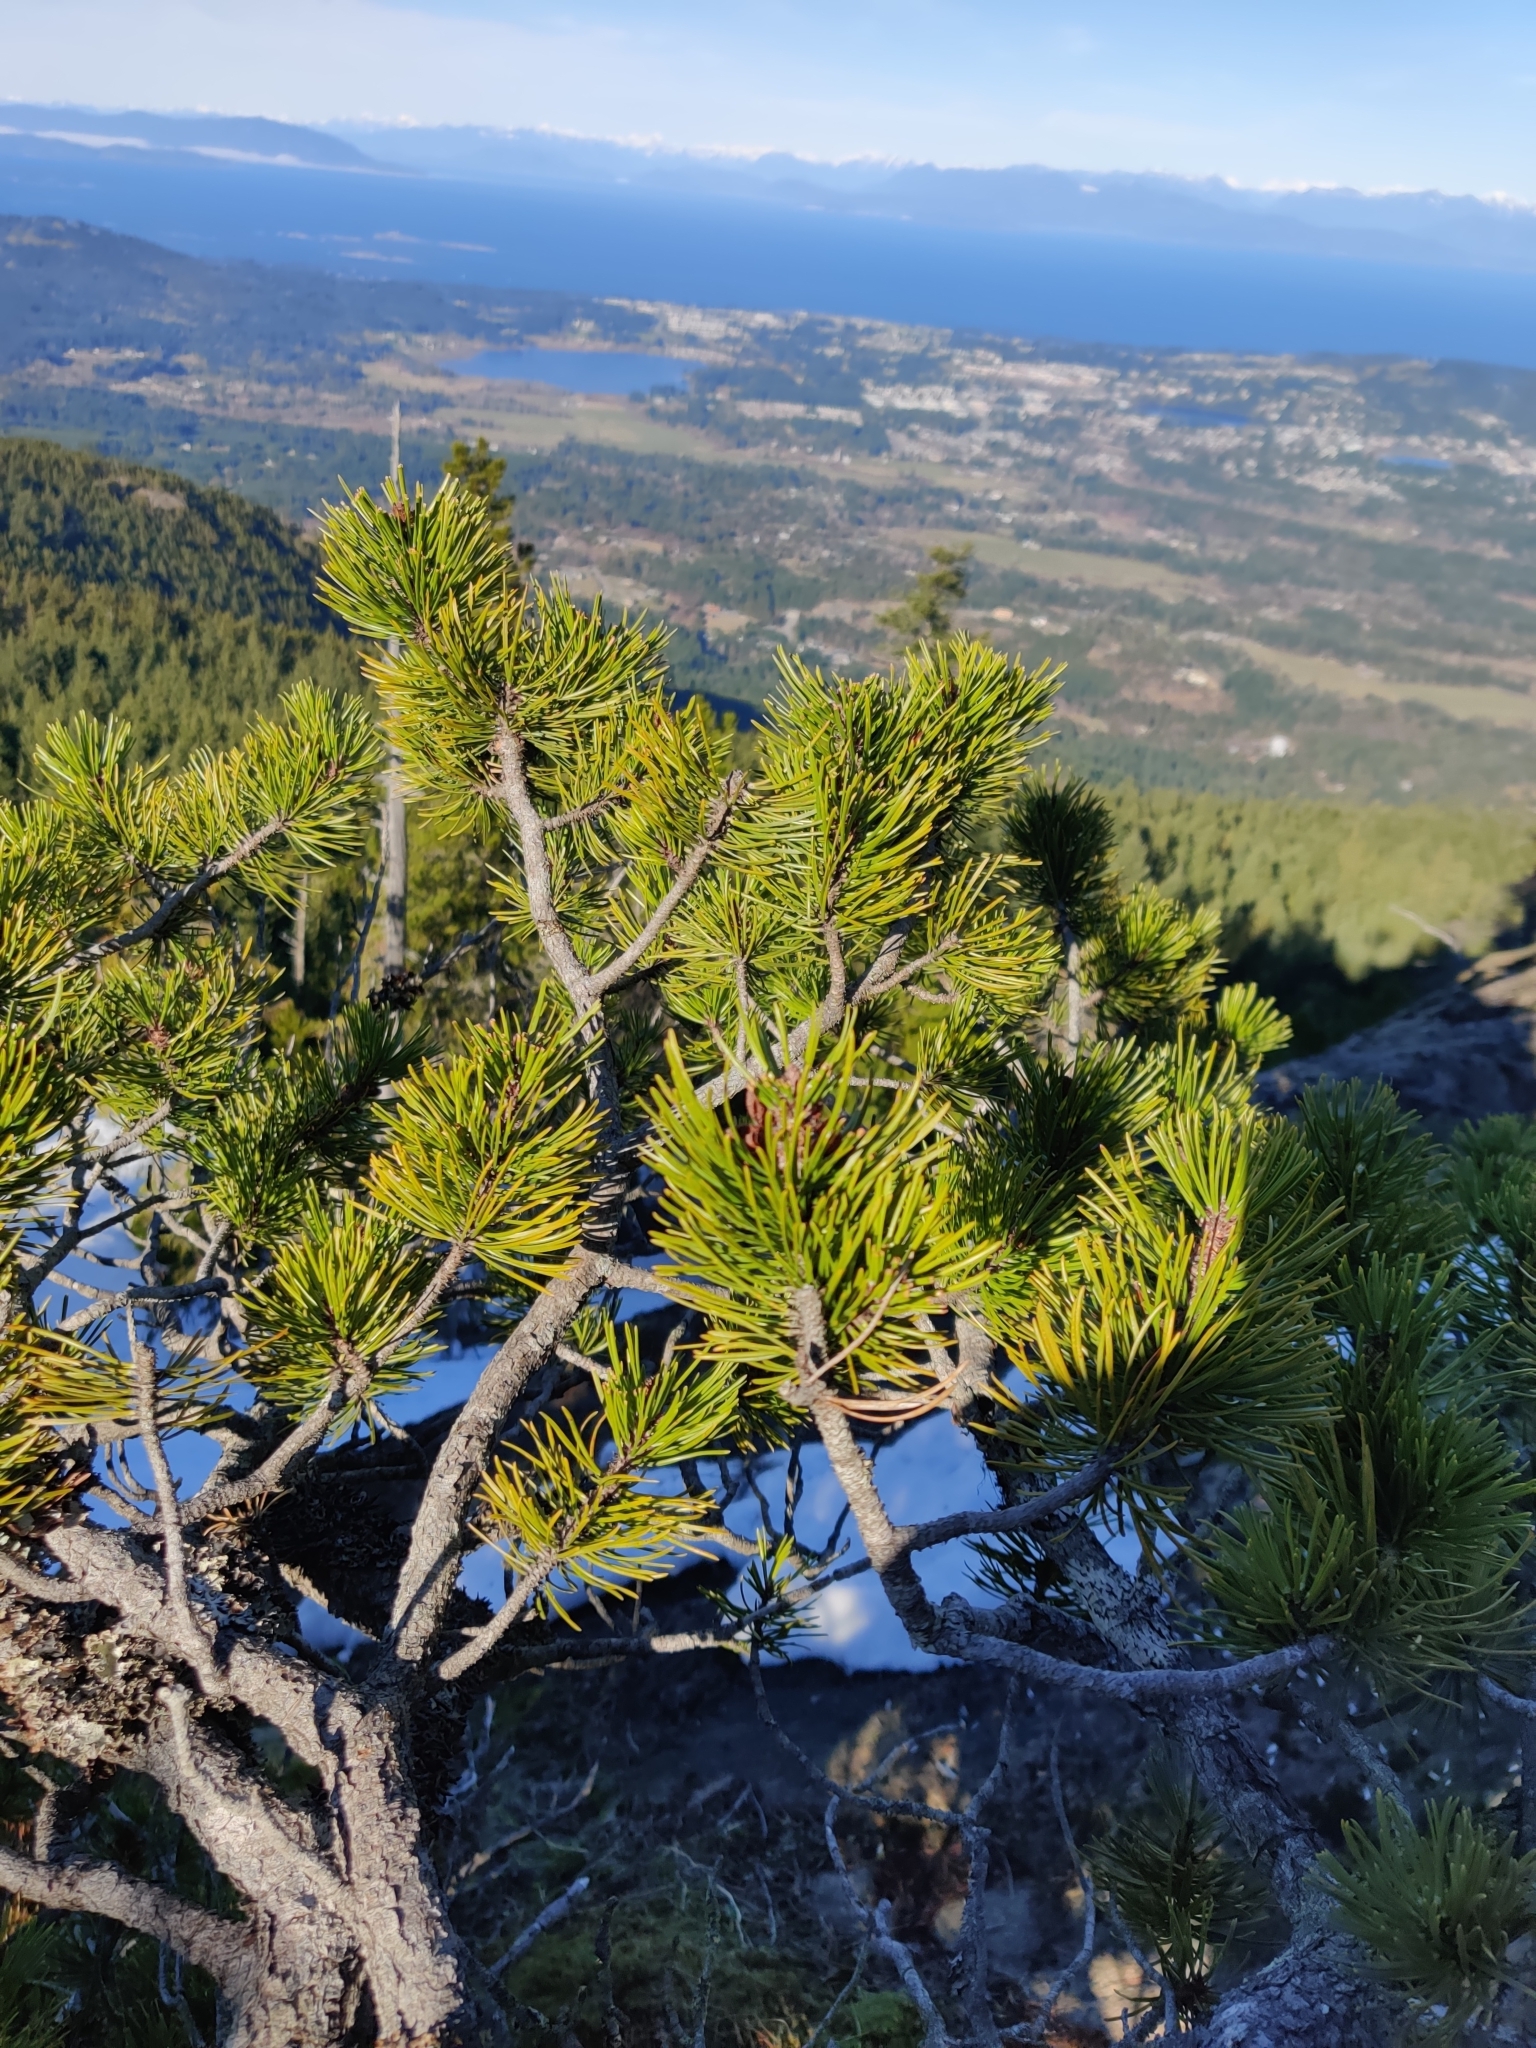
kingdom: Plantae
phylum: Tracheophyta
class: Pinopsida
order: Pinales
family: Pinaceae
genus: Pinus
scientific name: Pinus contorta
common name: Lodgepole pine
